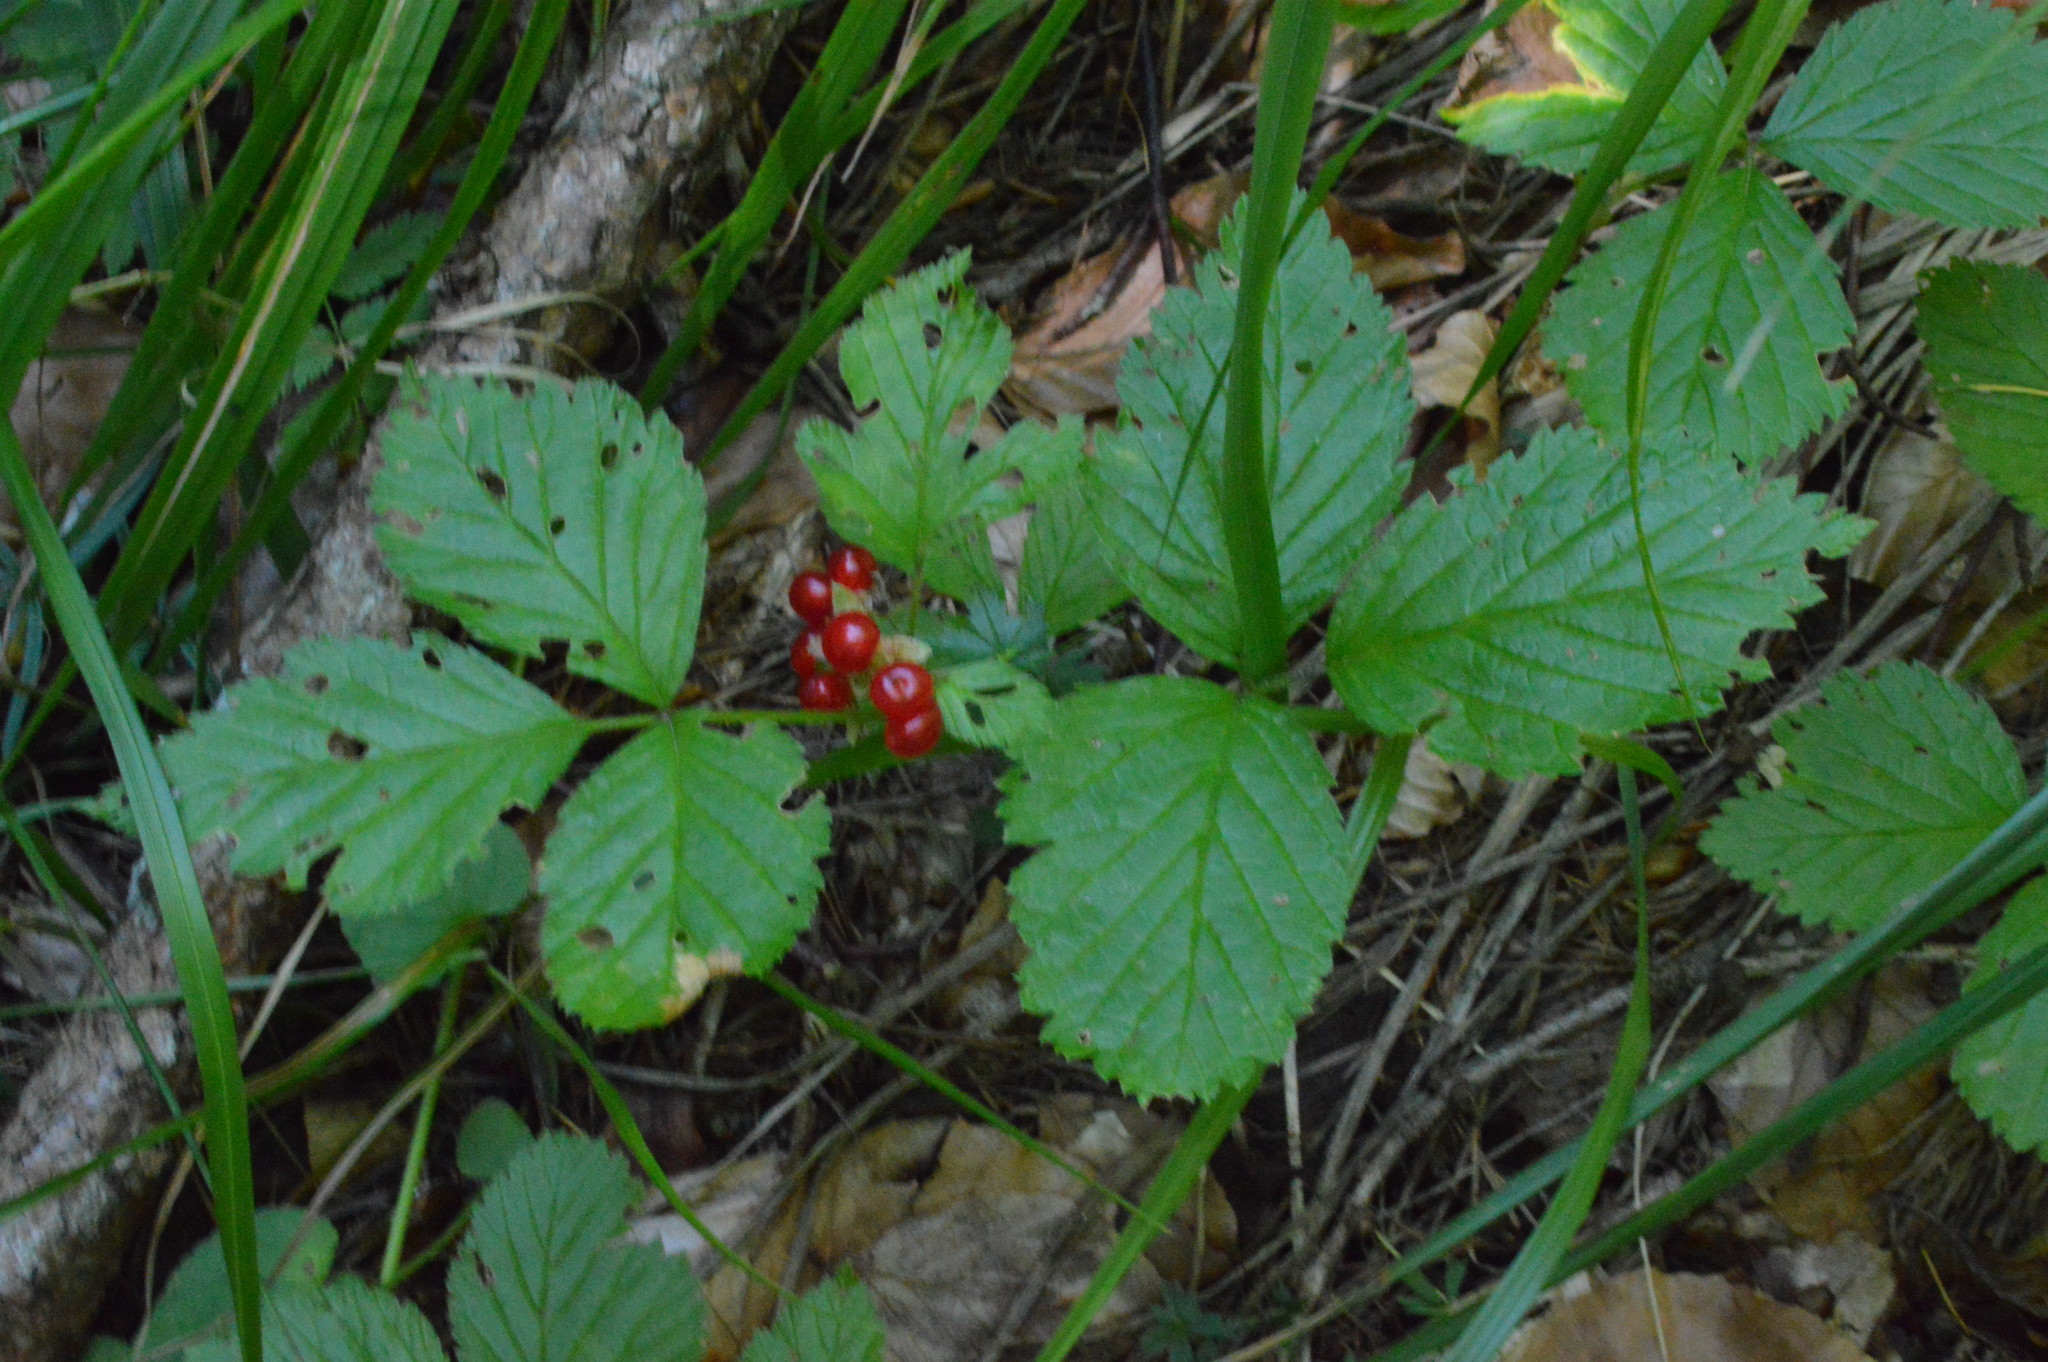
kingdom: Plantae
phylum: Tracheophyta
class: Magnoliopsida
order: Rosales
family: Rosaceae
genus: Rubus
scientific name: Rubus saxatilis
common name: Stone bramble
